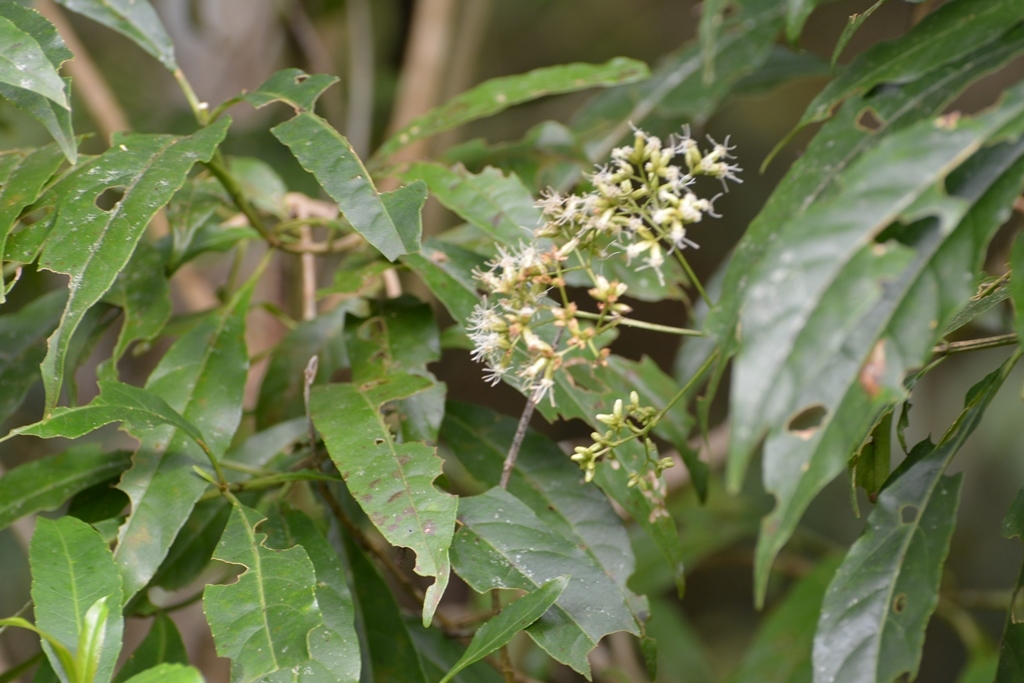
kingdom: Plantae
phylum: Tracheophyta
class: Magnoliopsida
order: Asterales
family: Asteraceae
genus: Critonia
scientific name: Critonia hospitalis
